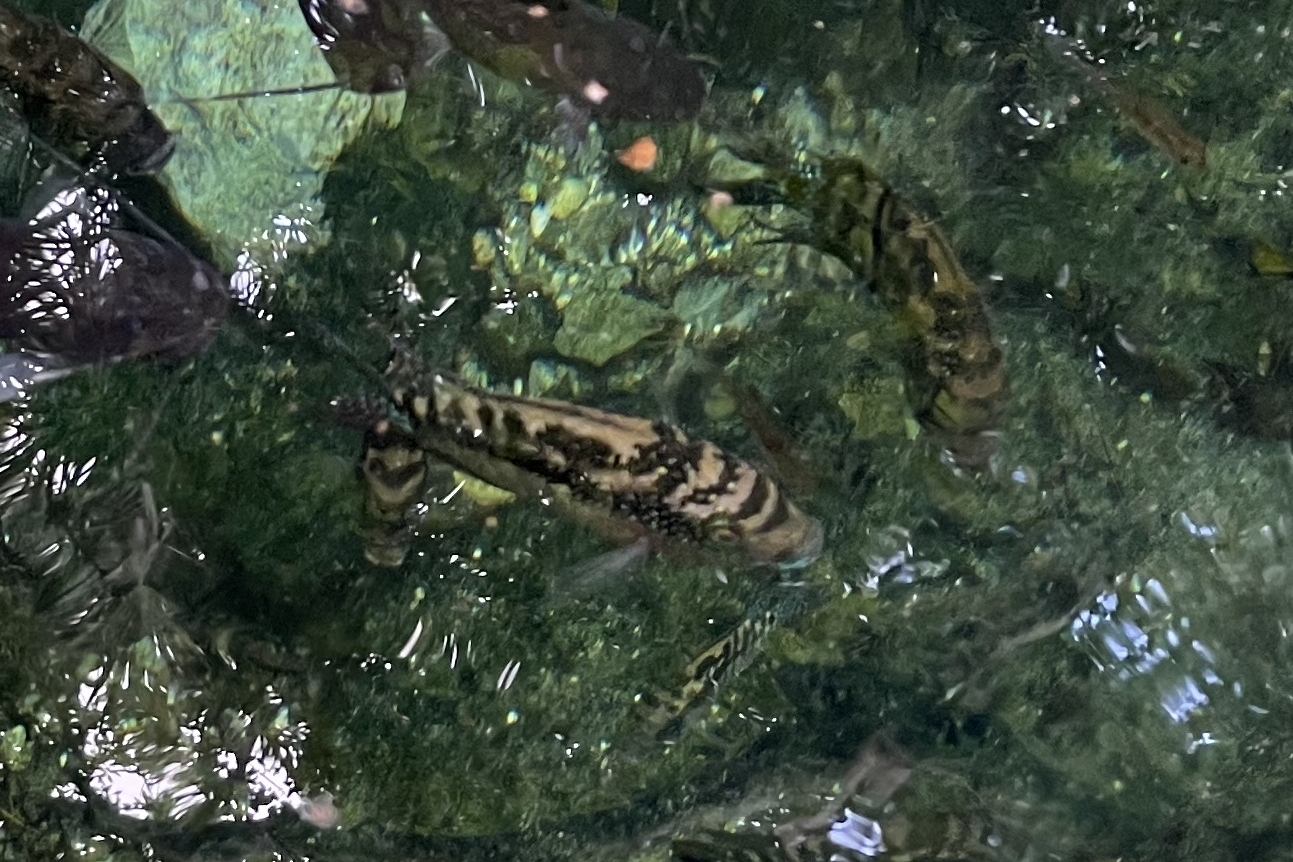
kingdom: Animalia
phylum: Chordata
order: Perciformes
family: Cichlidae
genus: Rocio
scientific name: Rocio octofasciata
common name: Jack dempsey
